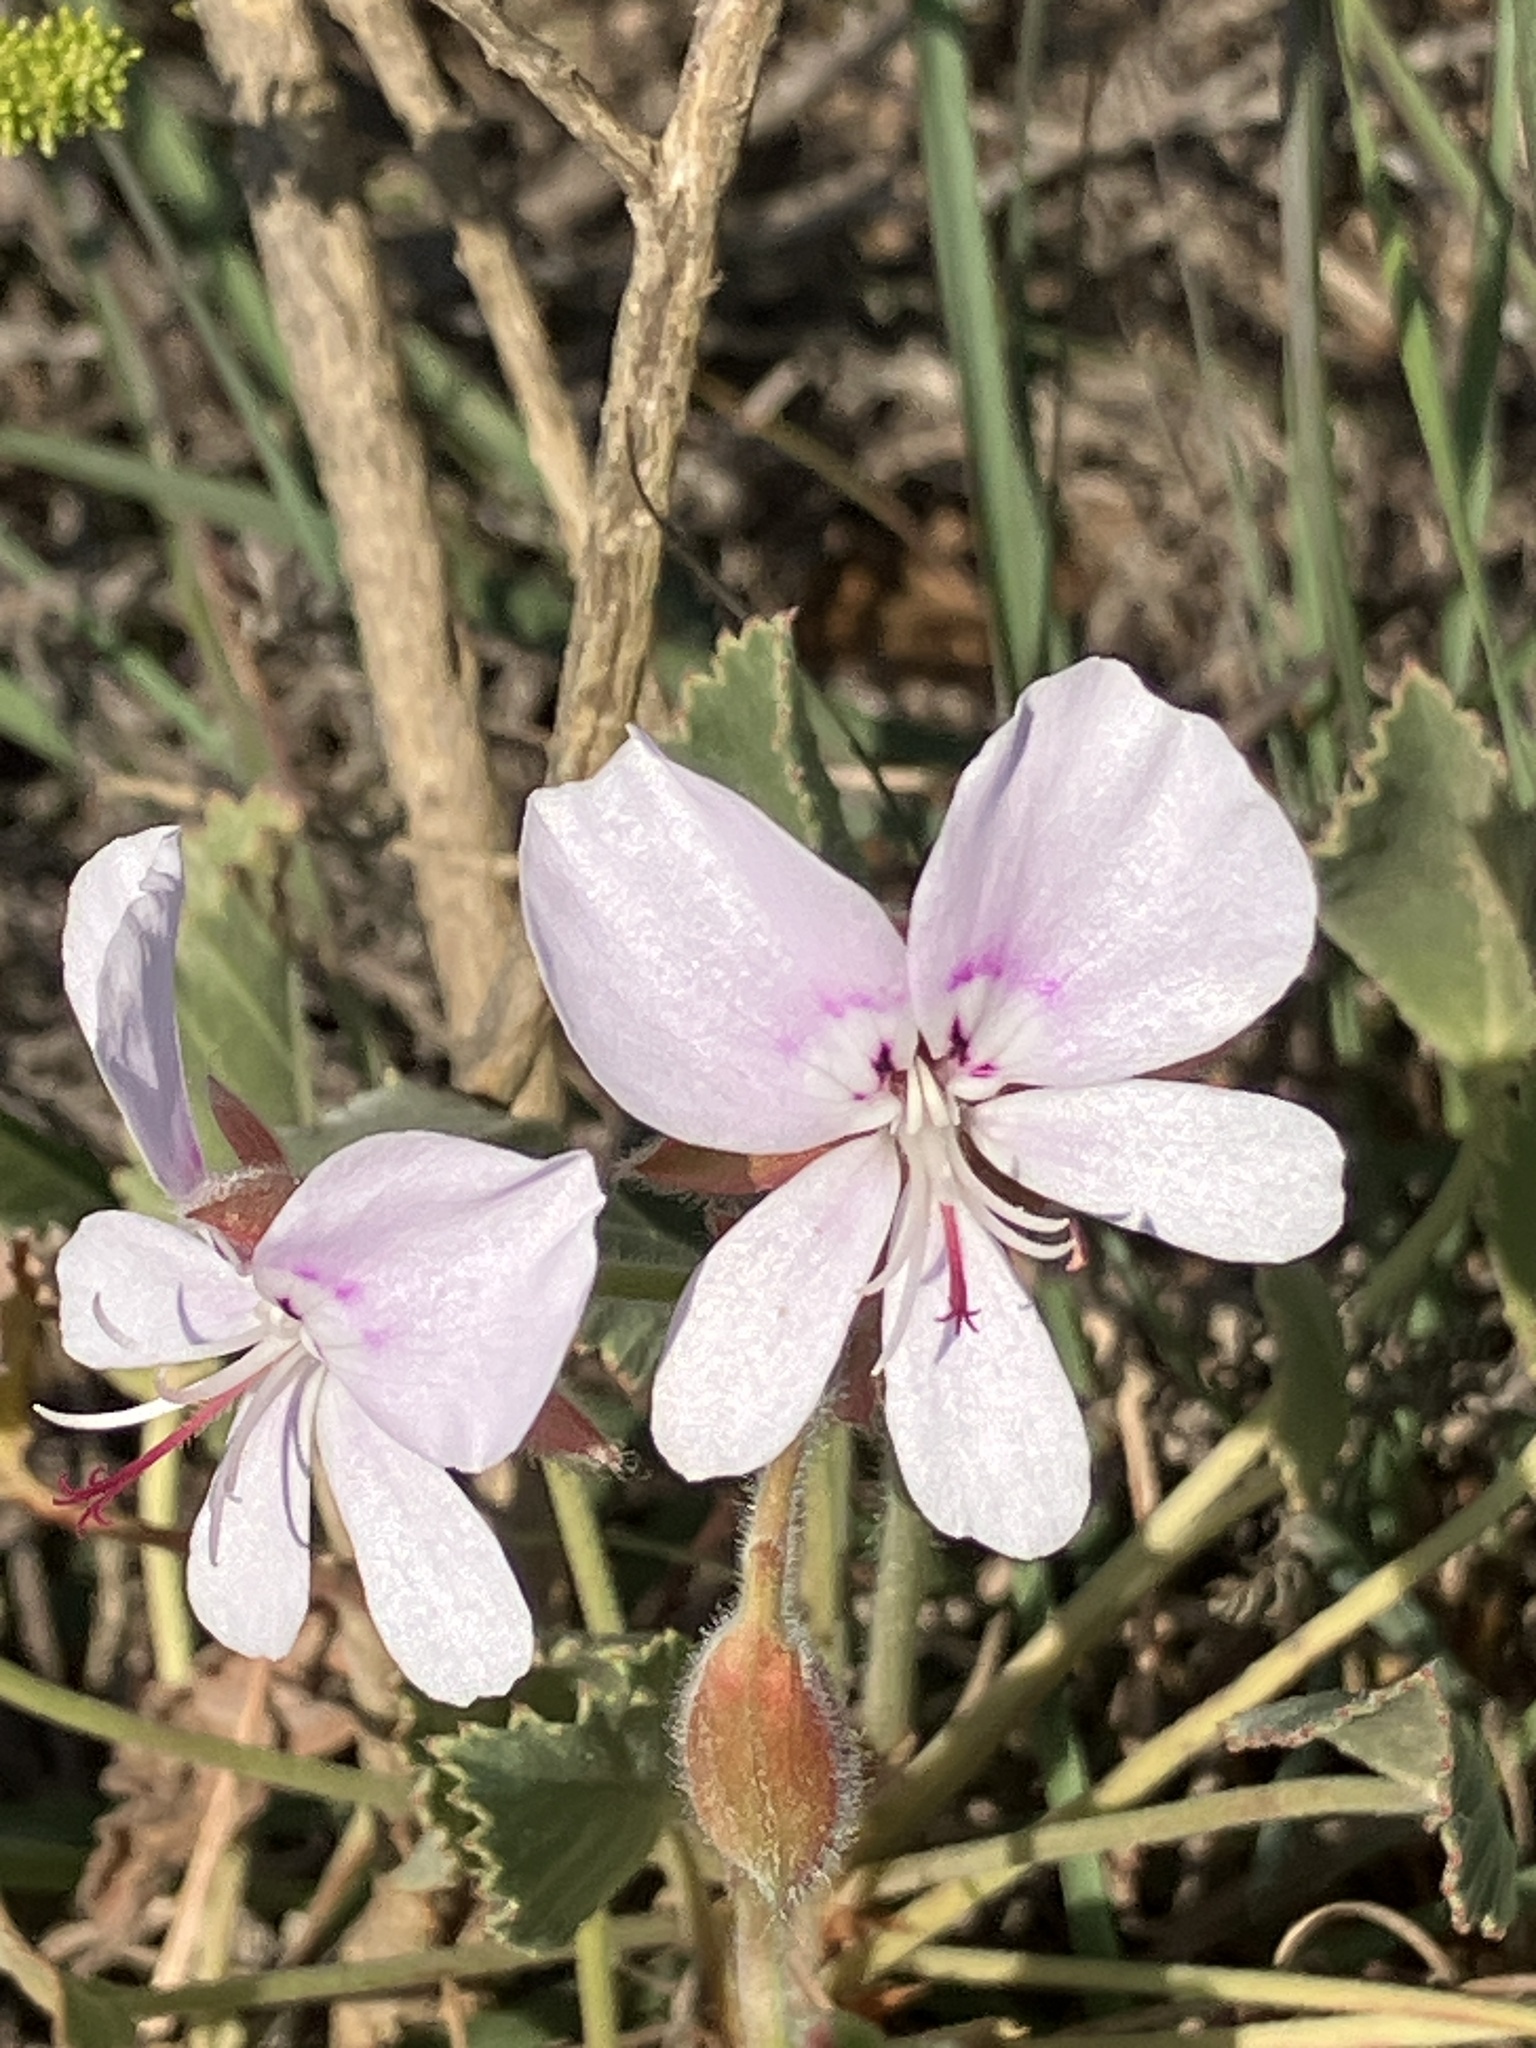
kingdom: Plantae
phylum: Tracheophyta
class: Magnoliopsida
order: Geraniales
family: Geraniaceae
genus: Pelargonium
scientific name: Pelargonium ovale
